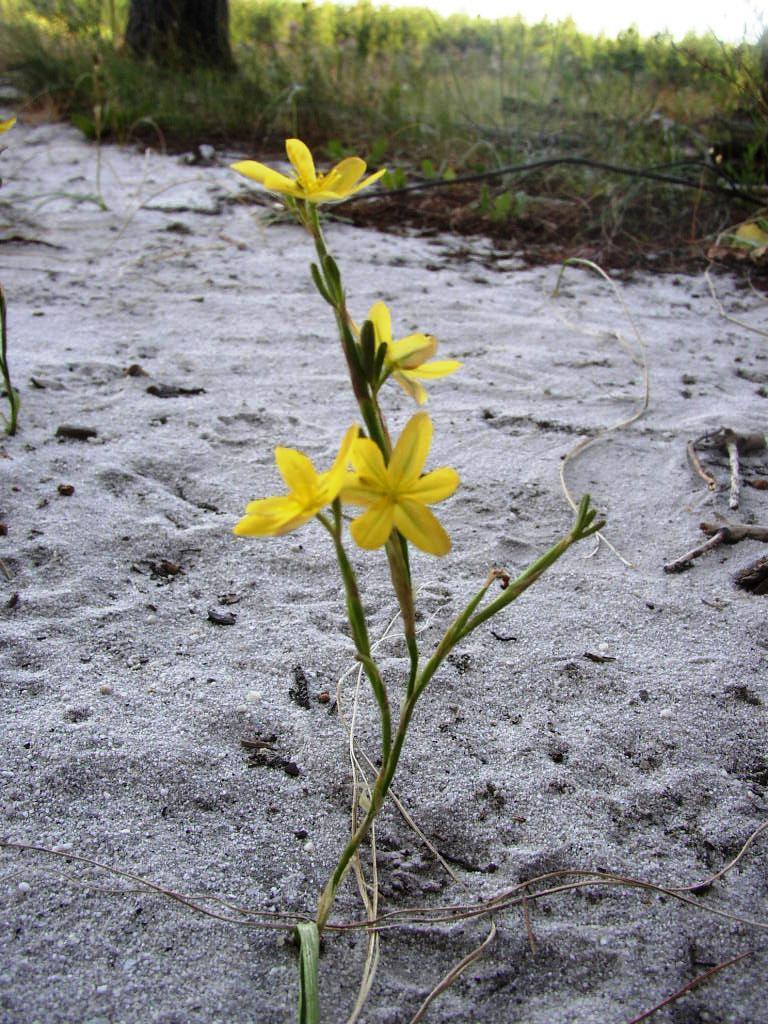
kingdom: Plantae
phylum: Tracheophyta
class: Liliopsida
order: Asparagales
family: Iridaceae
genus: Moraea
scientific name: Moraea collina
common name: Cape-tulip
